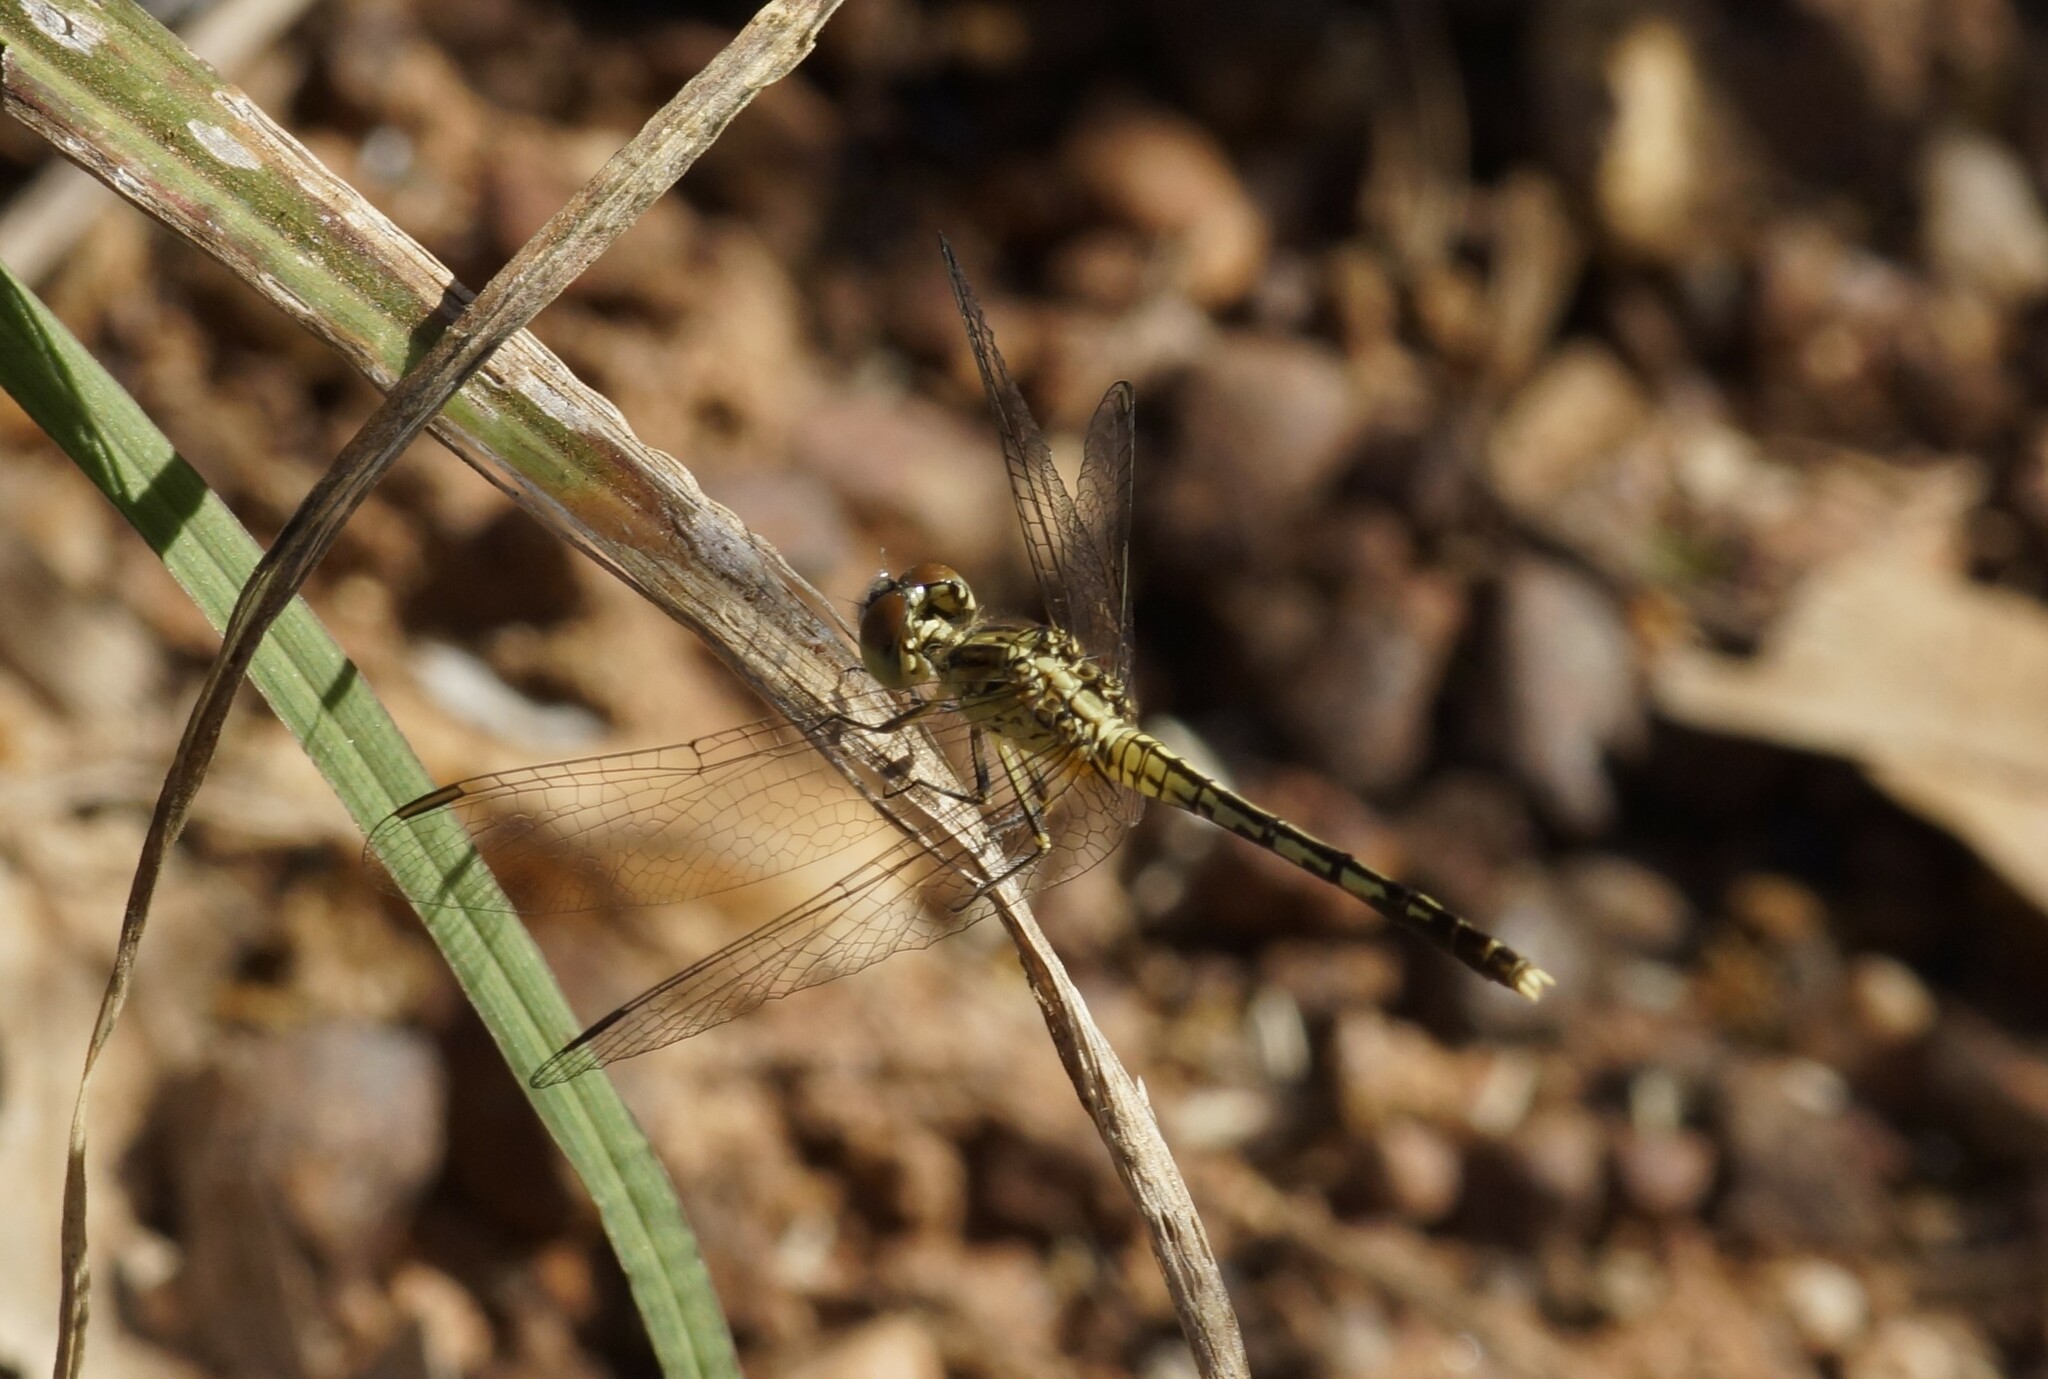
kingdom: Animalia
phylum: Arthropoda
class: Insecta
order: Odonata
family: Libellulidae
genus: Diplacodes
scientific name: Diplacodes trivialis
